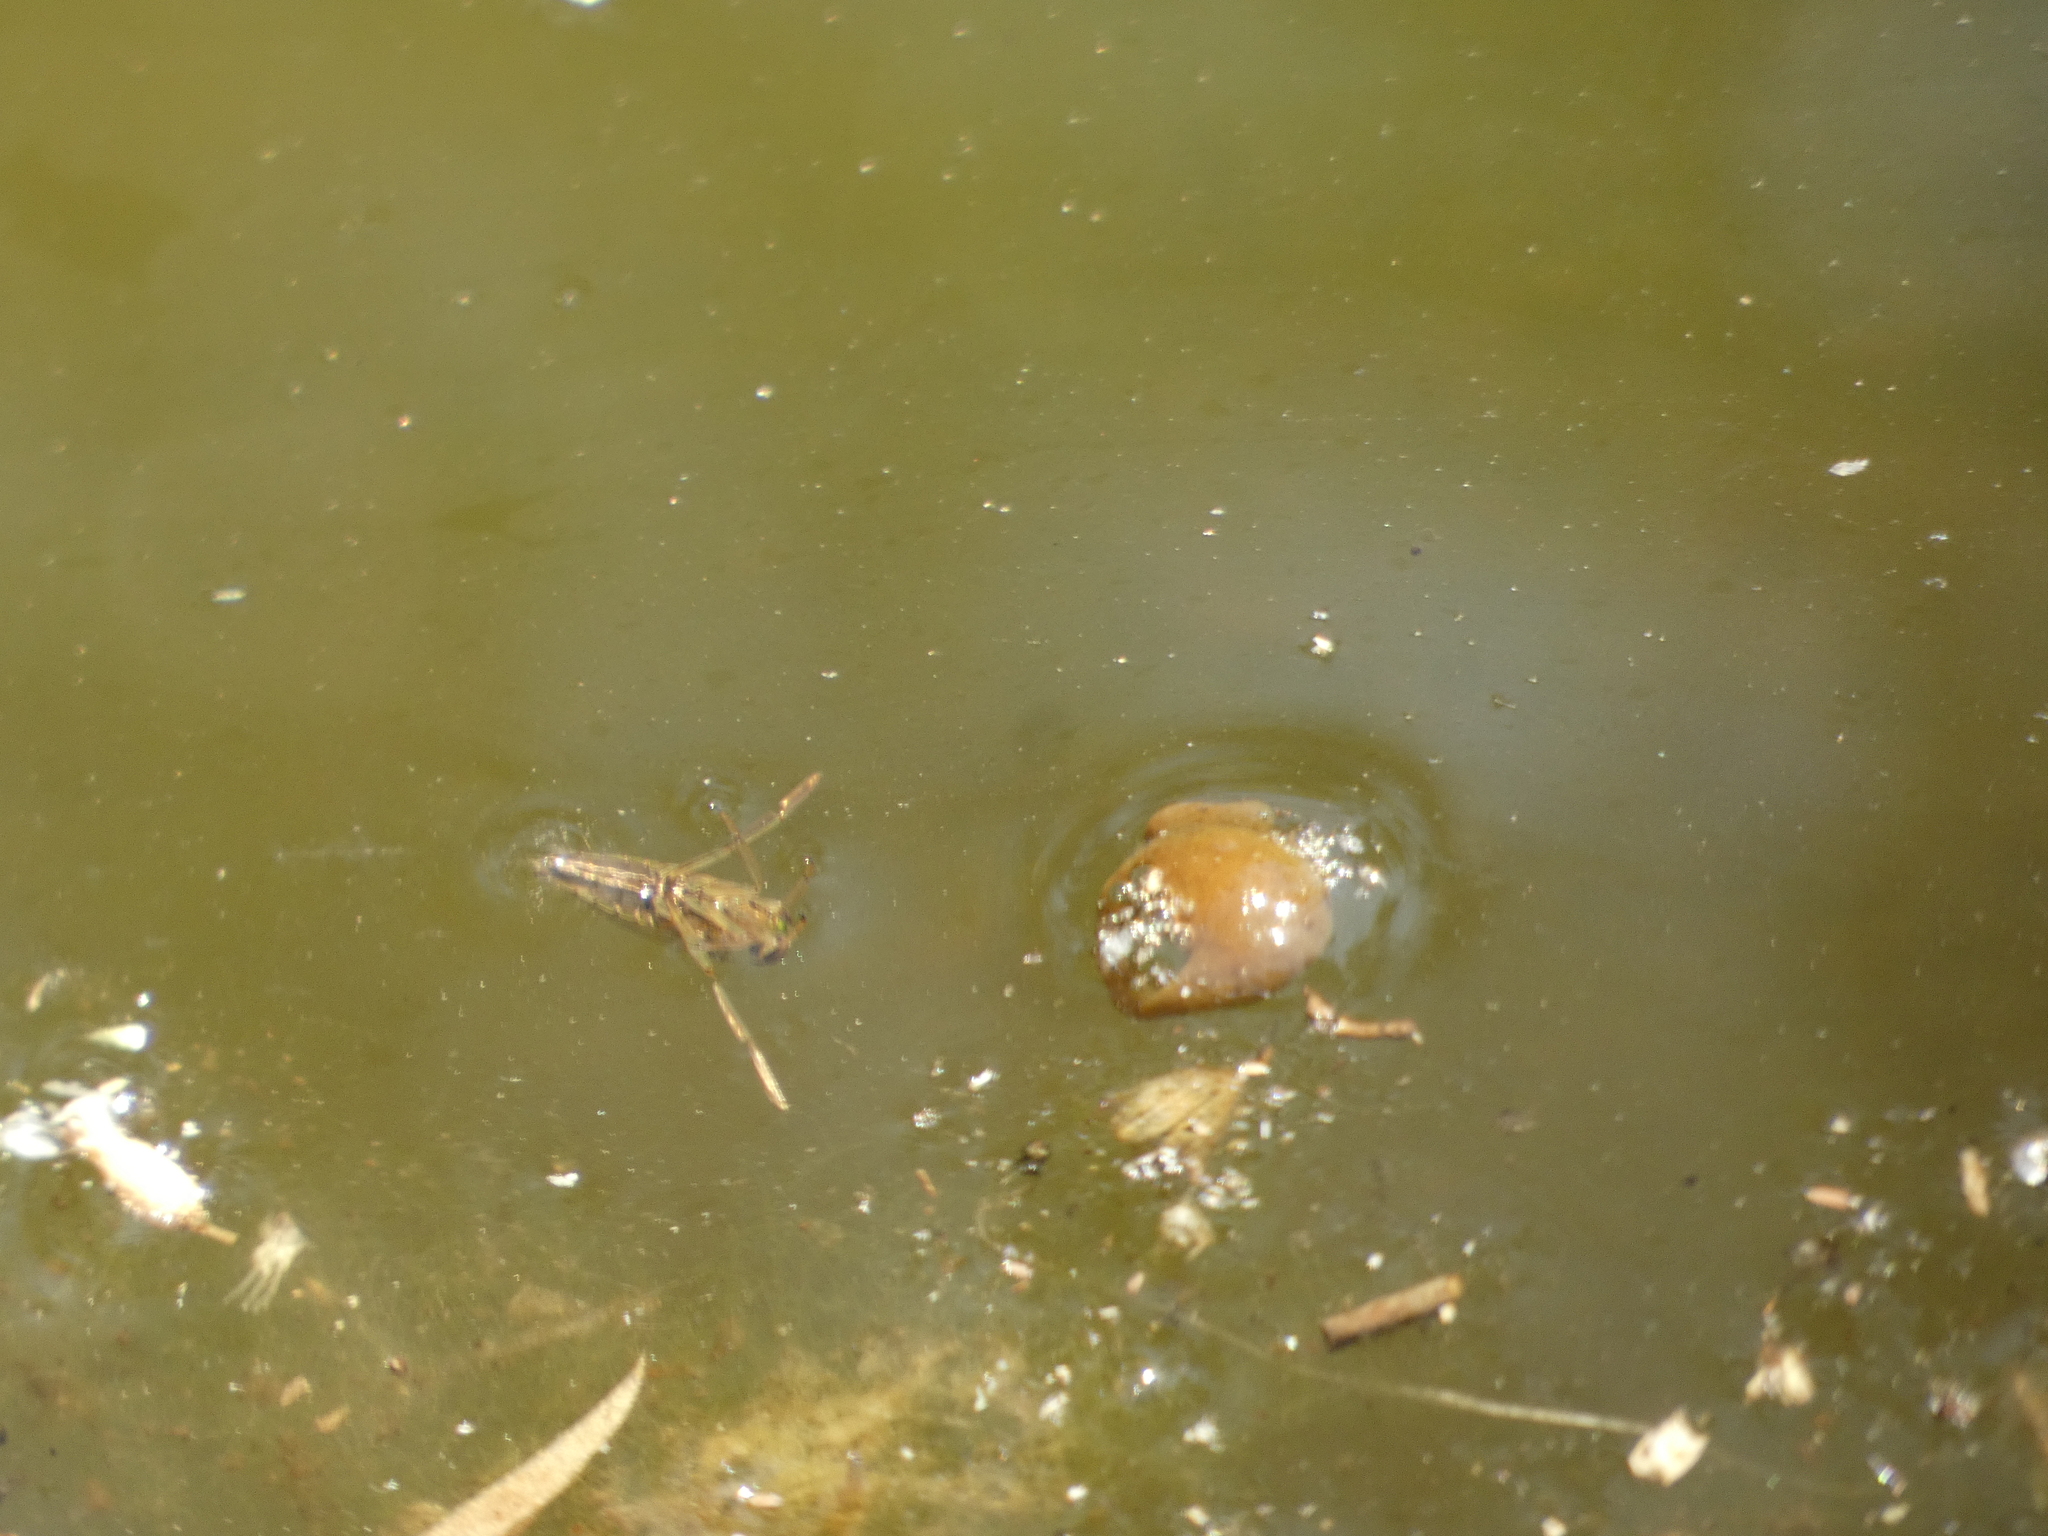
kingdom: Animalia
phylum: Arthropoda
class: Insecta
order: Hemiptera
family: Notonectidae
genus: Notonecta
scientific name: Notonecta
